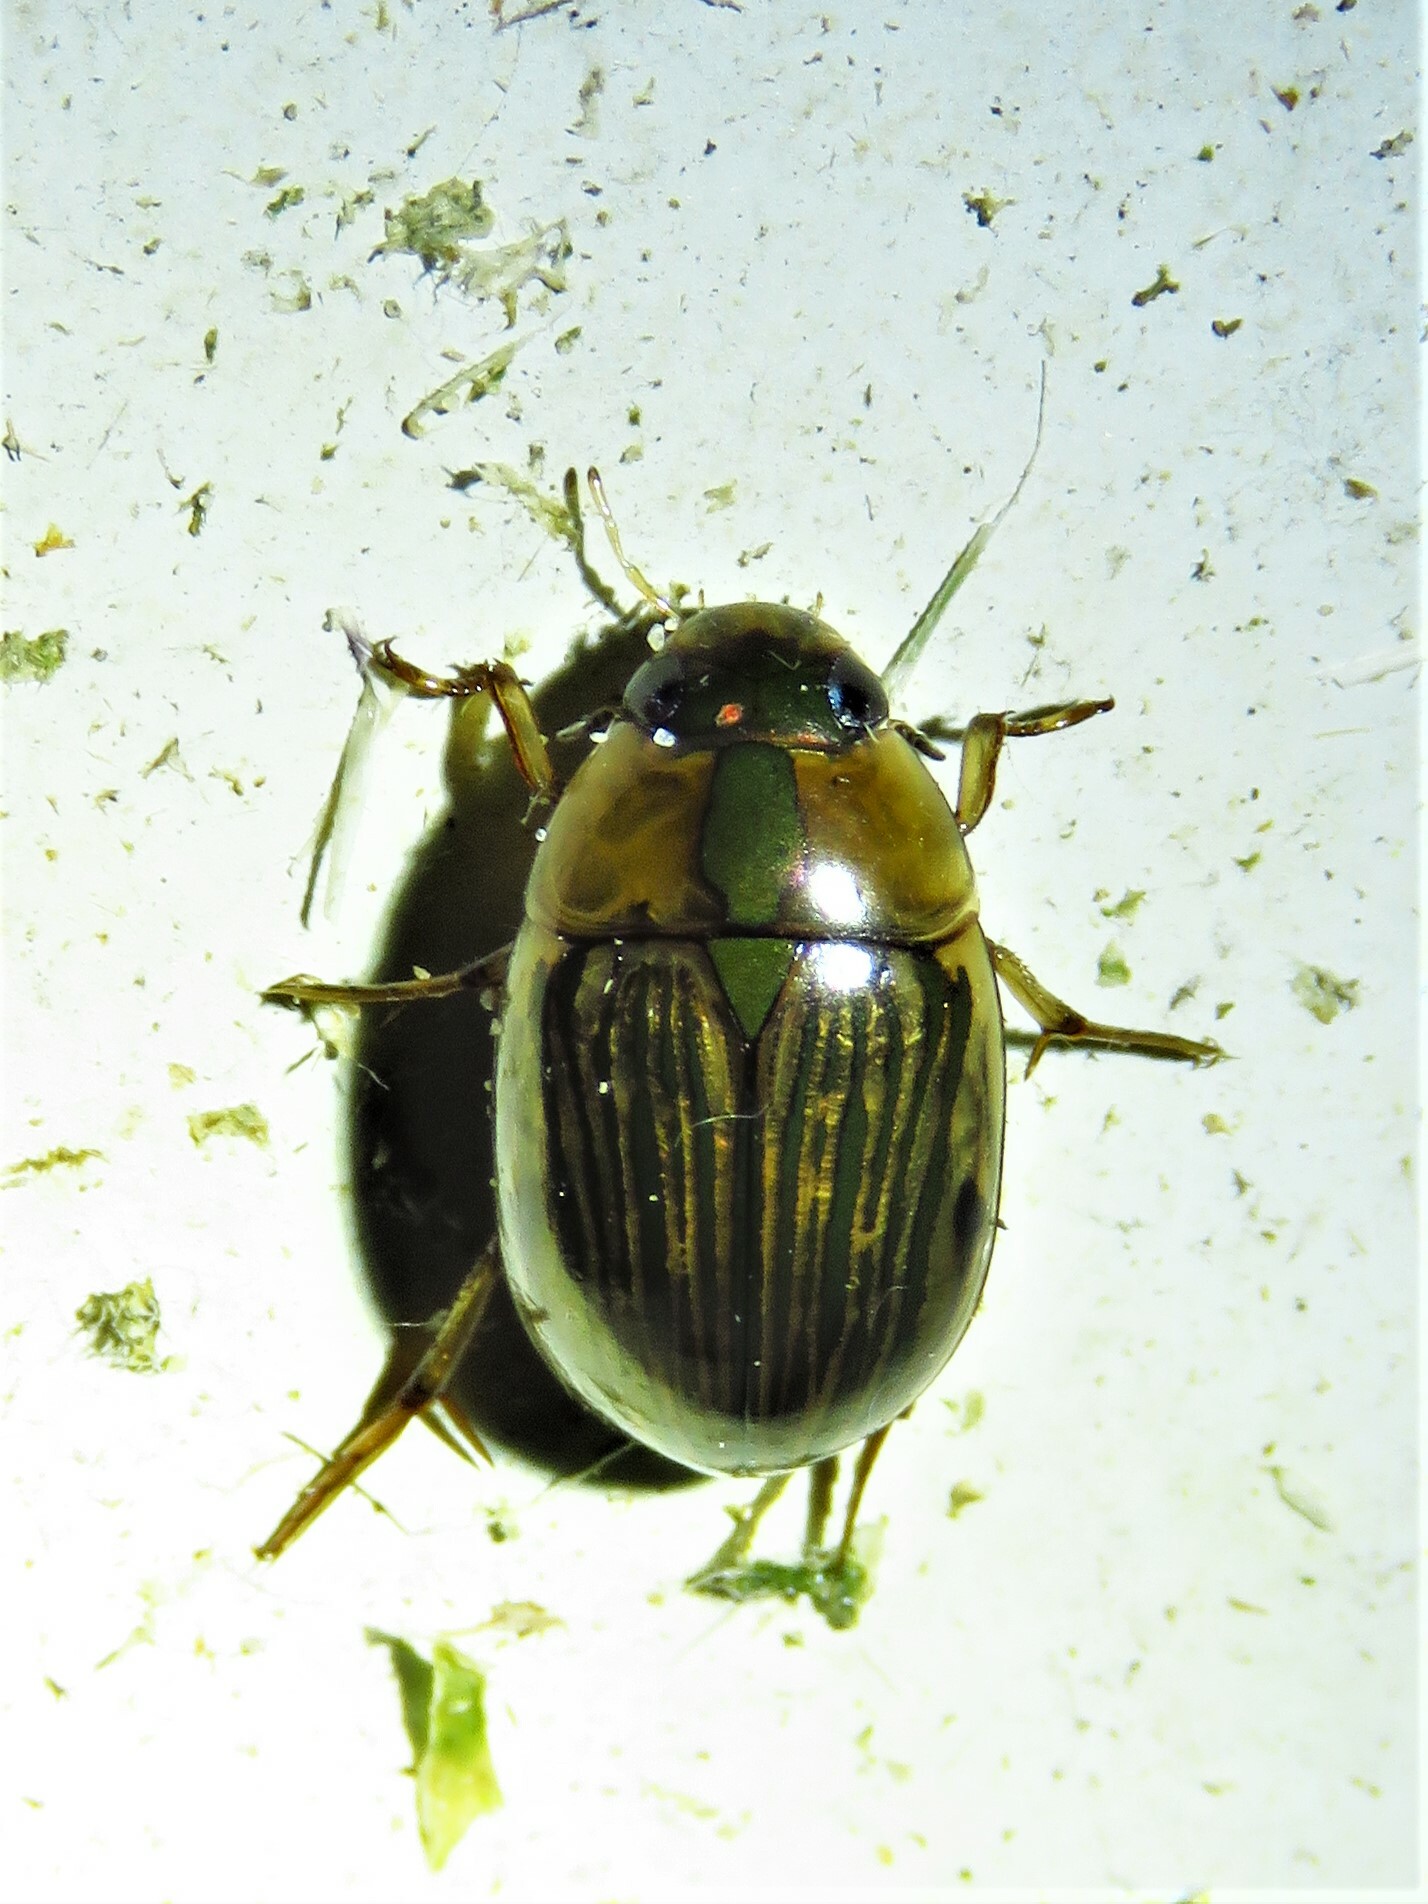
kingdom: Animalia
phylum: Arthropoda
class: Insecta
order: Coleoptera
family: Hydrophilidae
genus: Tropisternus
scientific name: Tropisternus collaris
